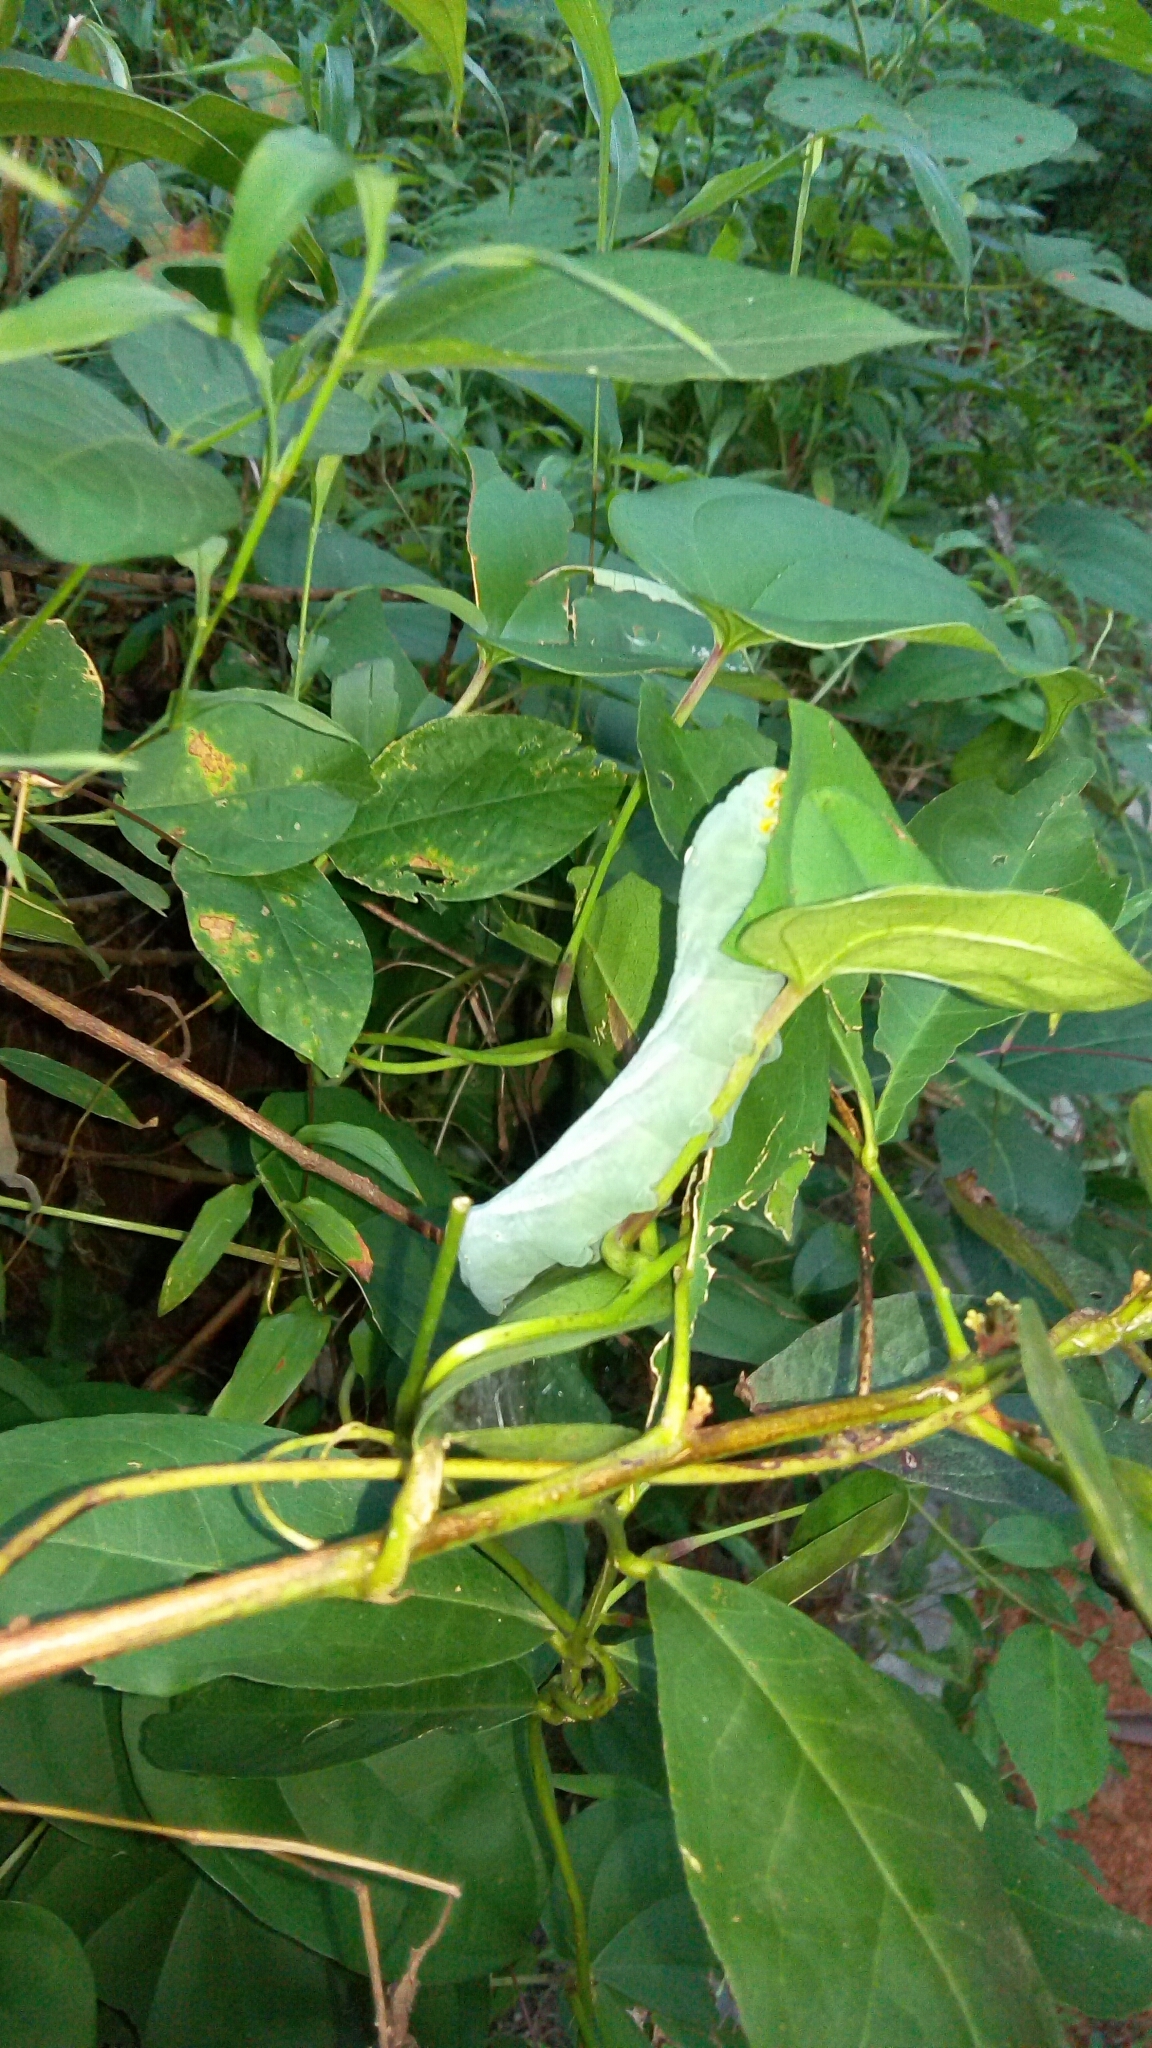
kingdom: Animalia
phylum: Arthropoda
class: Insecta
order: Lepidoptera
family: Sphingidae
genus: Theretra
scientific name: Theretra nessus
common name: Yam hawk moth
